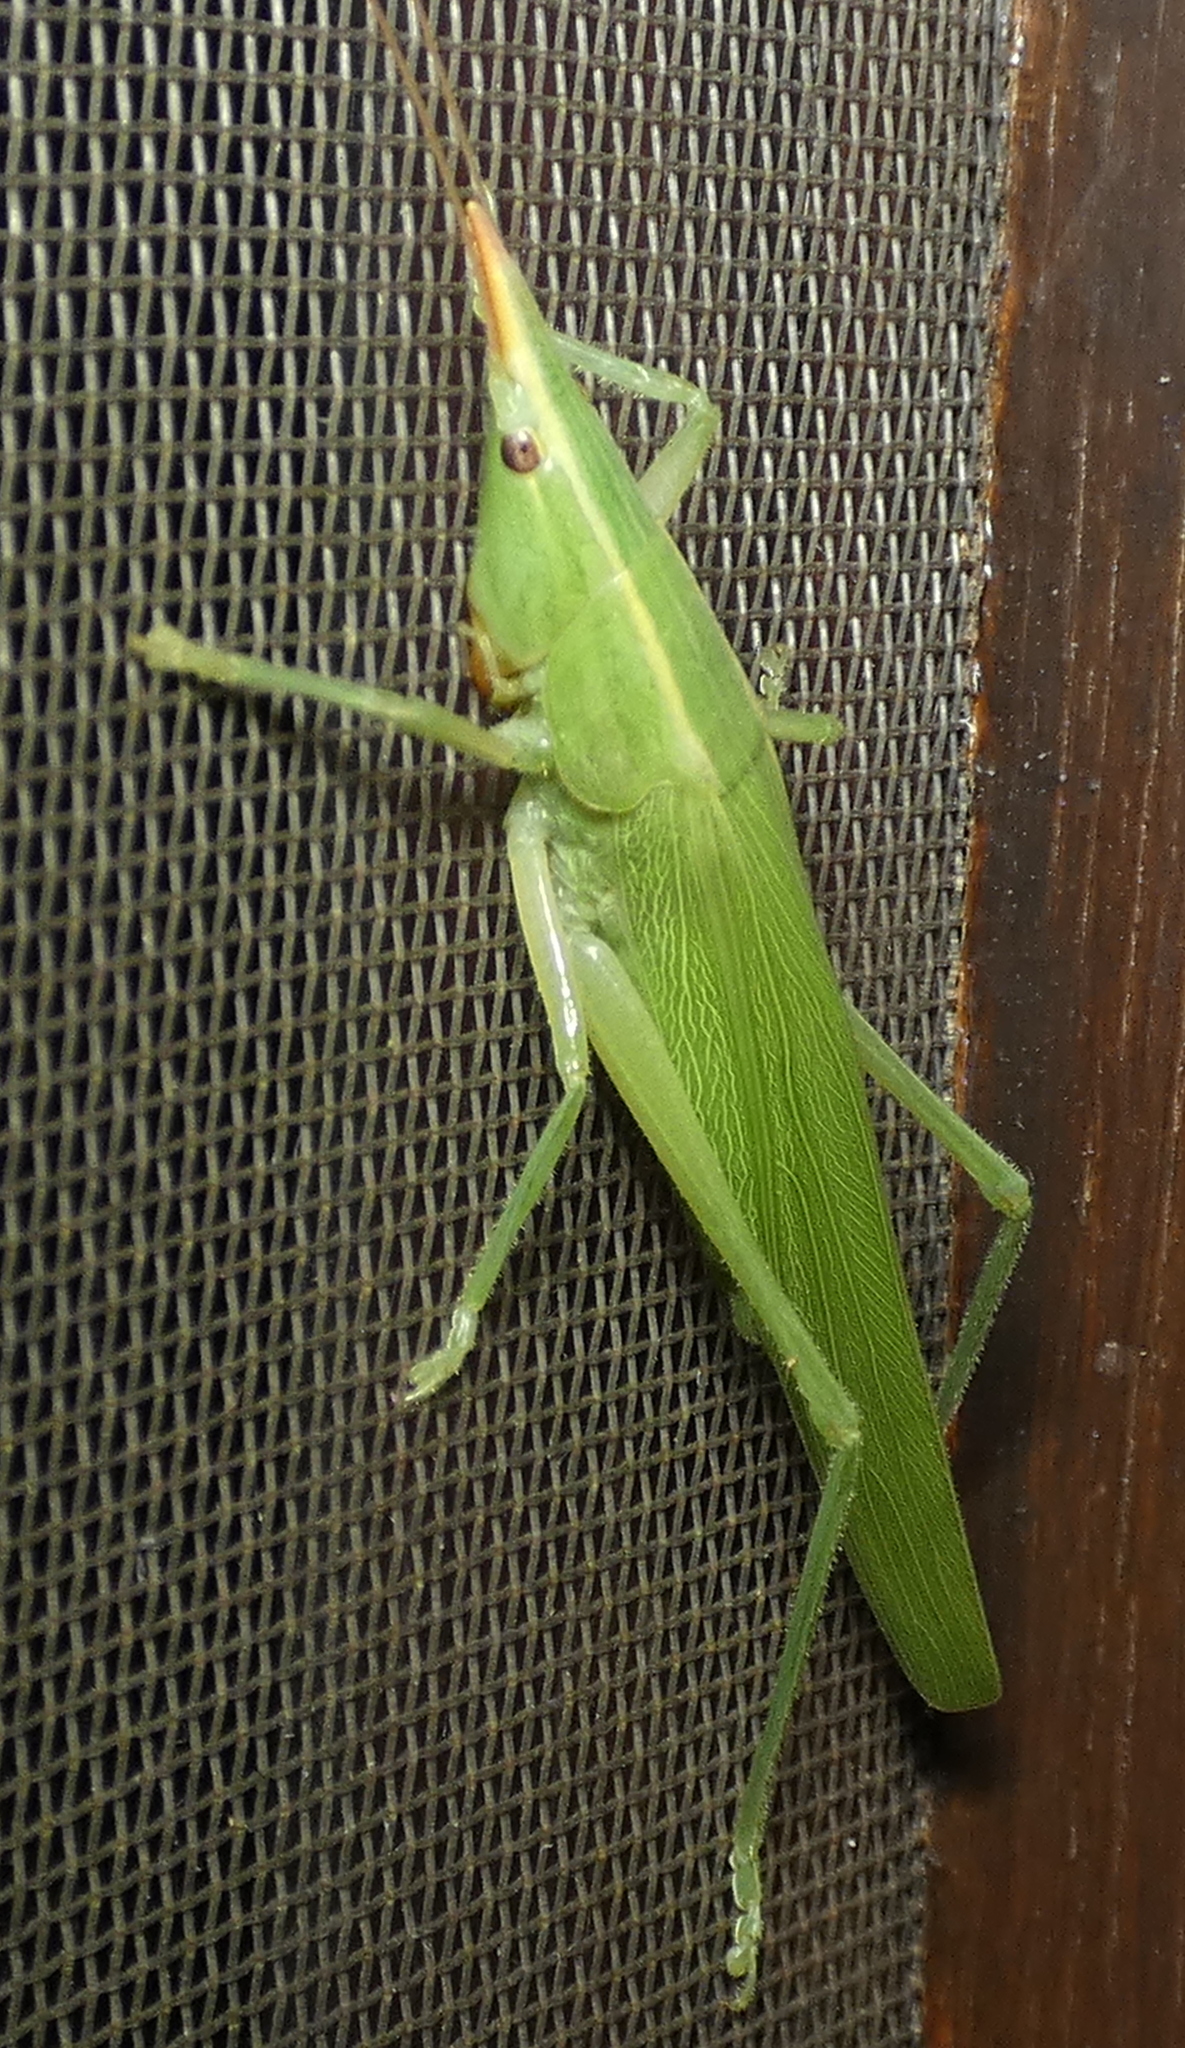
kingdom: Animalia
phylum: Arthropoda
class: Insecta
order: Orthoptera
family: Tettigoniidae
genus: Neoconocephalus
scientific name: Neoconocephalus flavirostris
